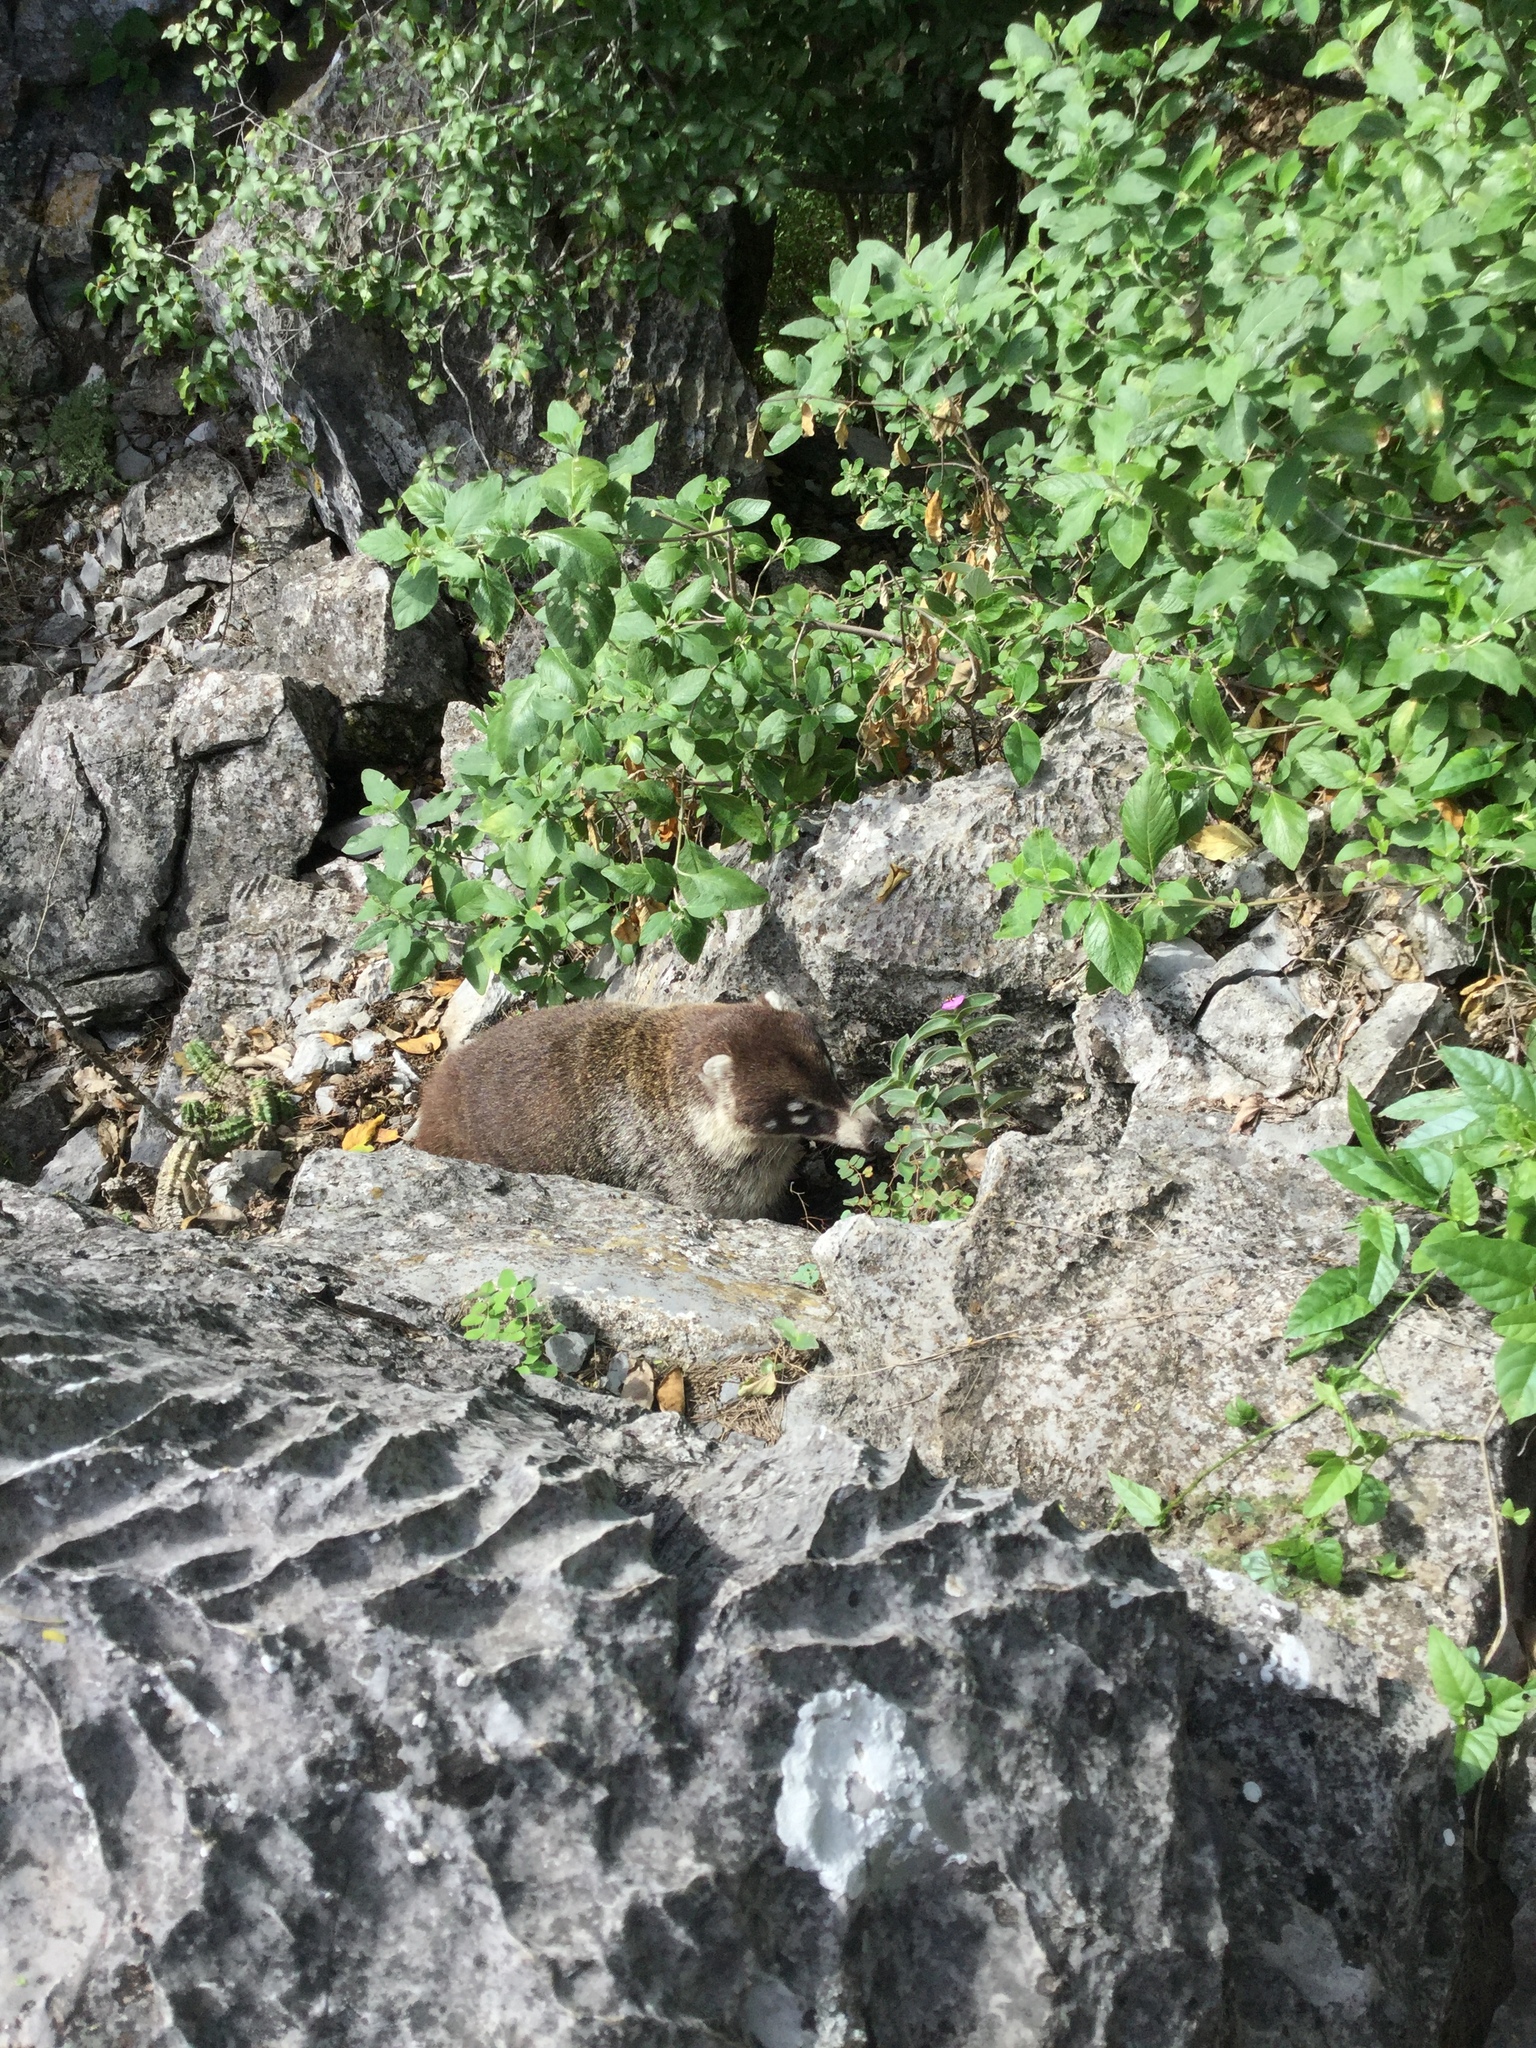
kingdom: Animalia
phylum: Chordata
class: Mammalia
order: Carnivora
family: Procyonidae
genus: Nasua
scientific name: Nasua narica
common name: White-nosed coati
